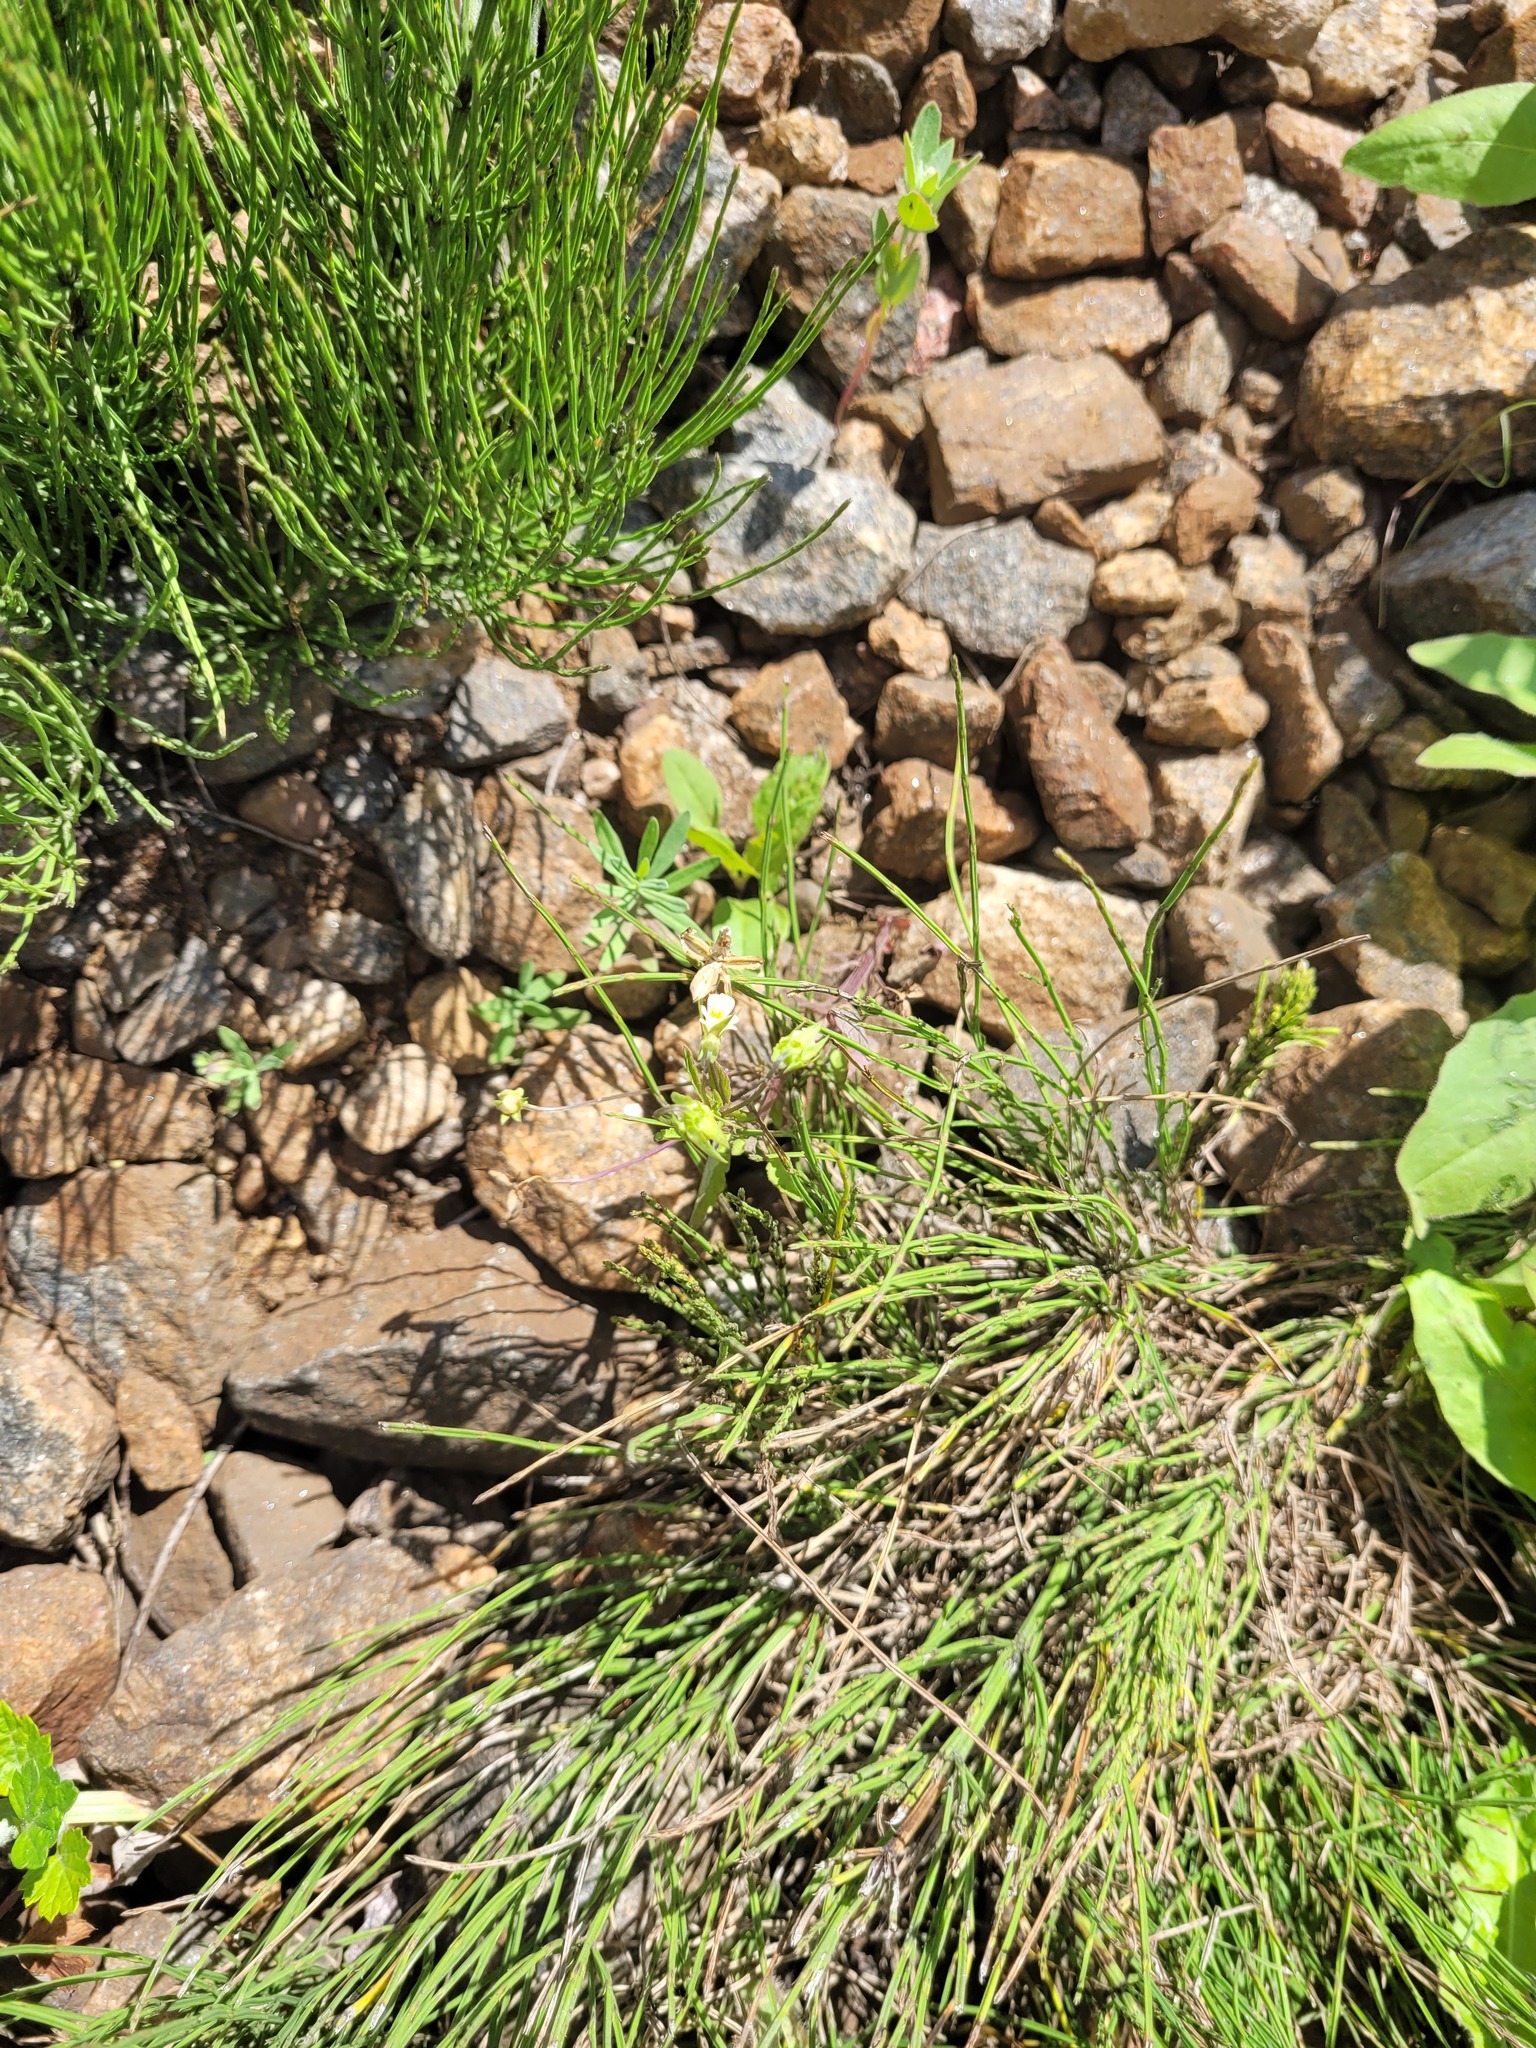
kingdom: Plantae
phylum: Tracheophyta
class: Magnoliopsida
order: Malpighiales
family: Violaceae
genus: Viola
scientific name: Viola arvensis
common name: Field pansy
